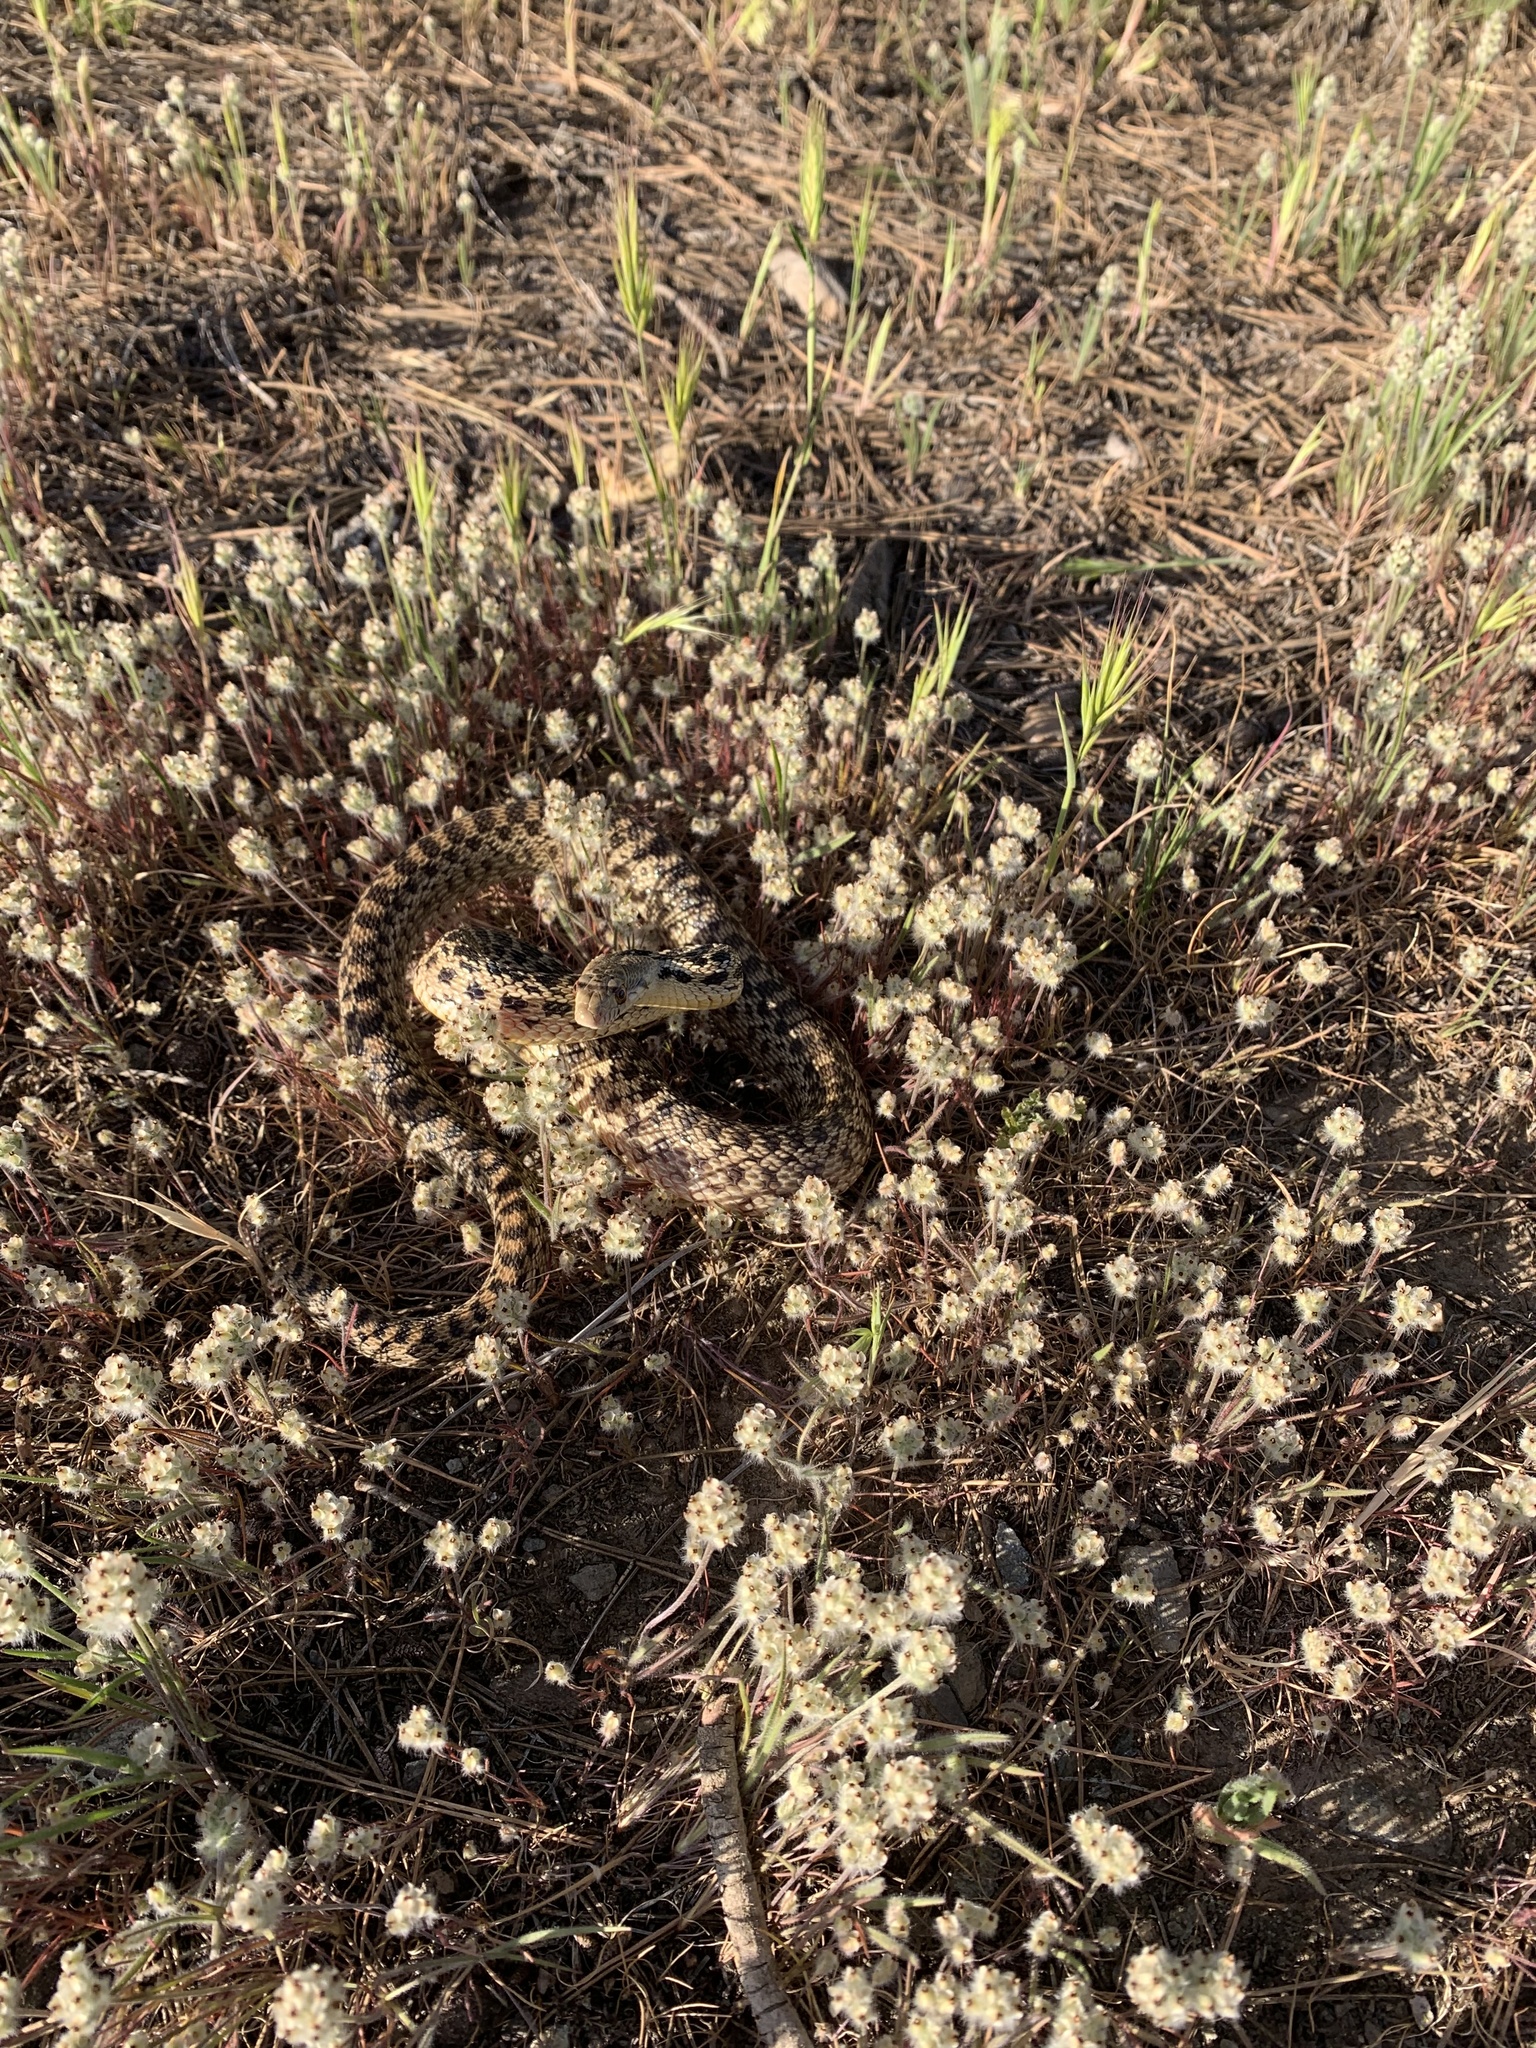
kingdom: Animalia
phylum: Chordata
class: Squamata
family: Colubridae
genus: Pituophis
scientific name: Pituophis catenifer
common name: Gopher snake
